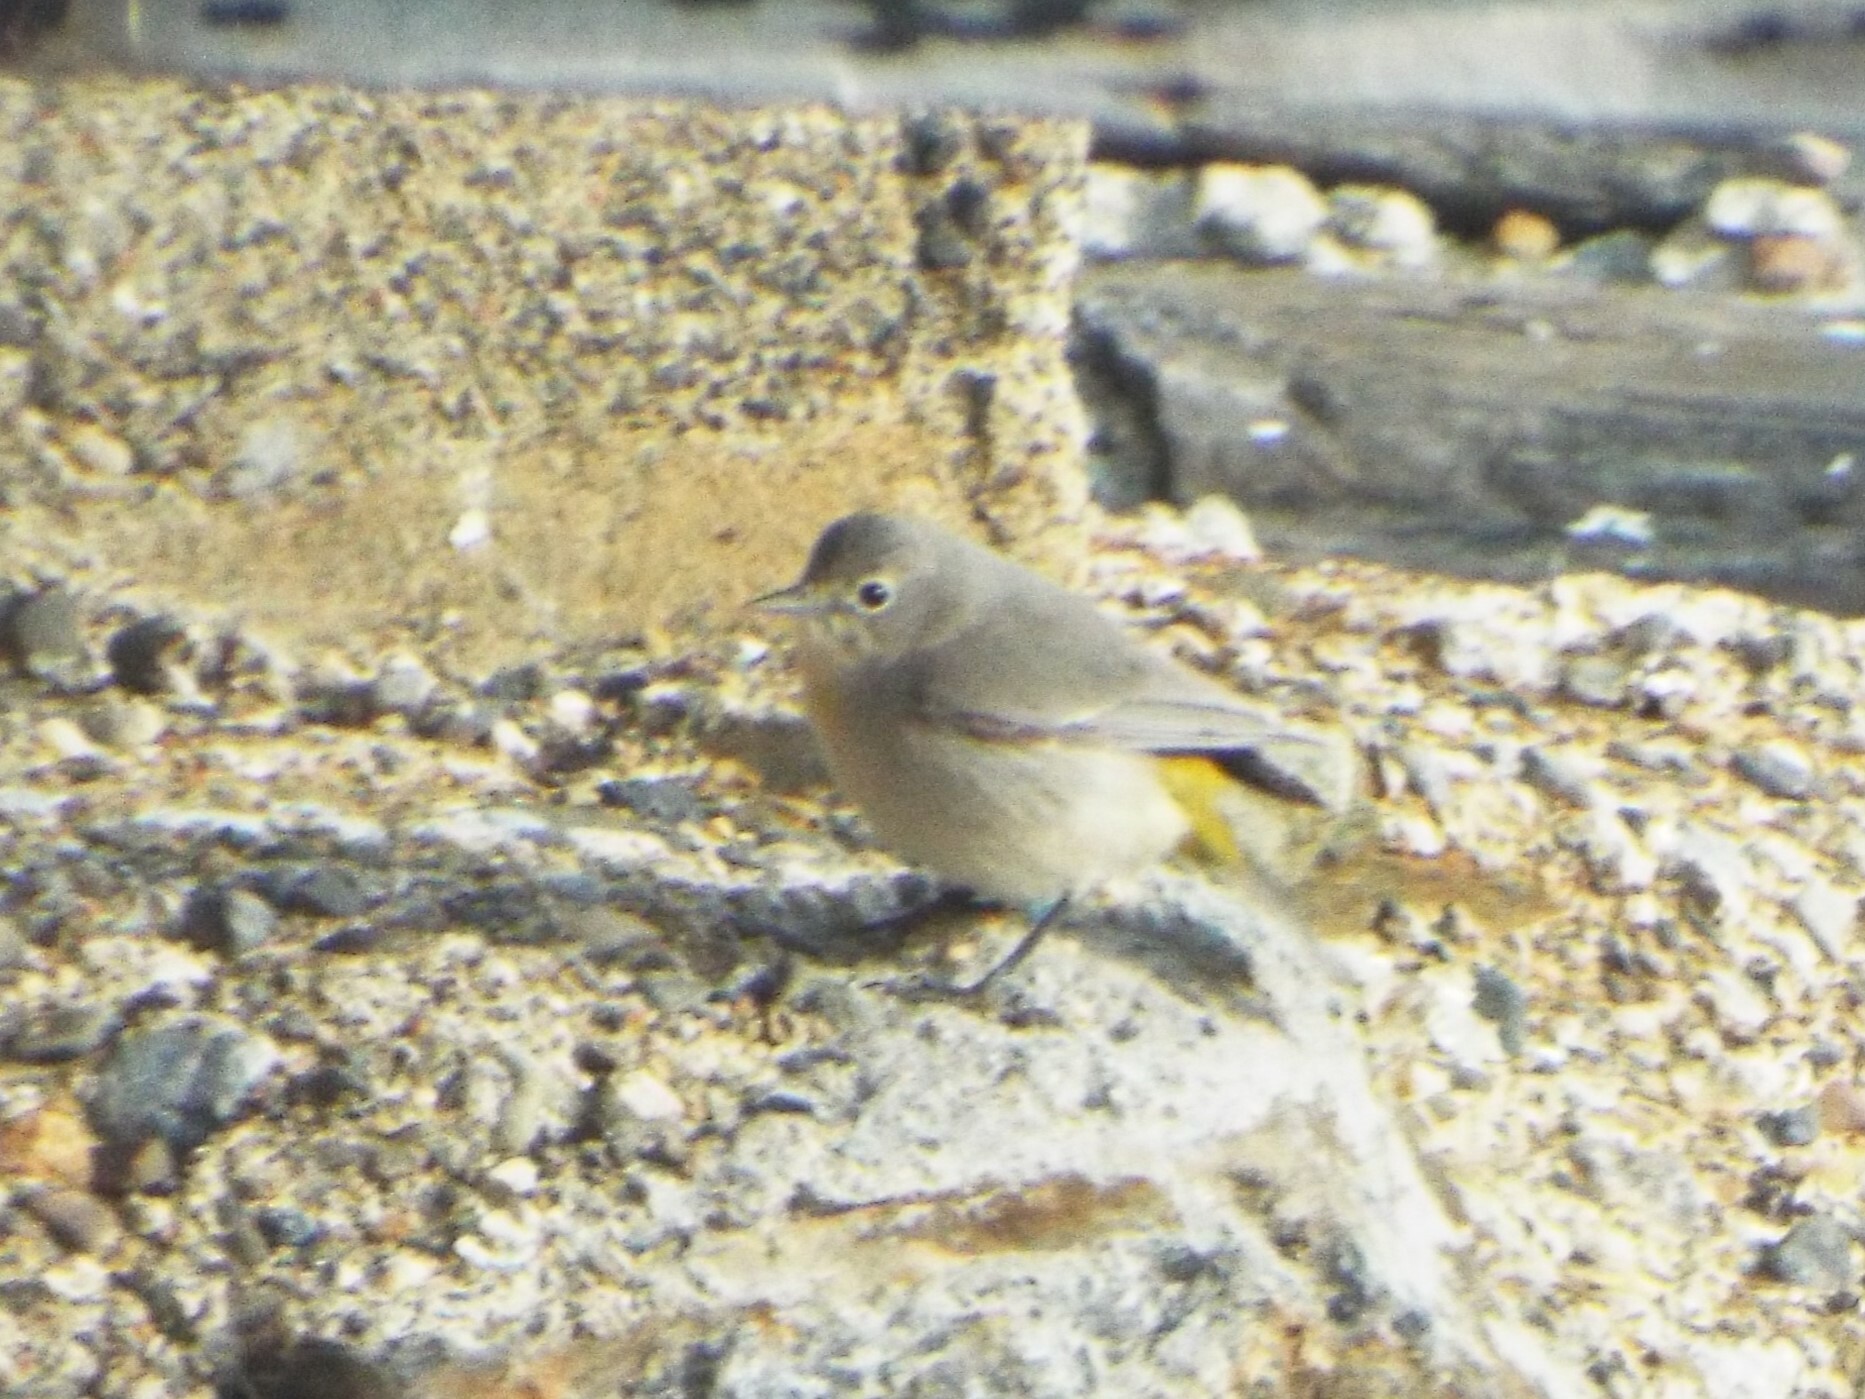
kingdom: Animalia
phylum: Chordata
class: Aves
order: Passeriformes
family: Parulidae
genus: Leiothlypis
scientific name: Leiothlypis virginiae
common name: Virginia's warbler
